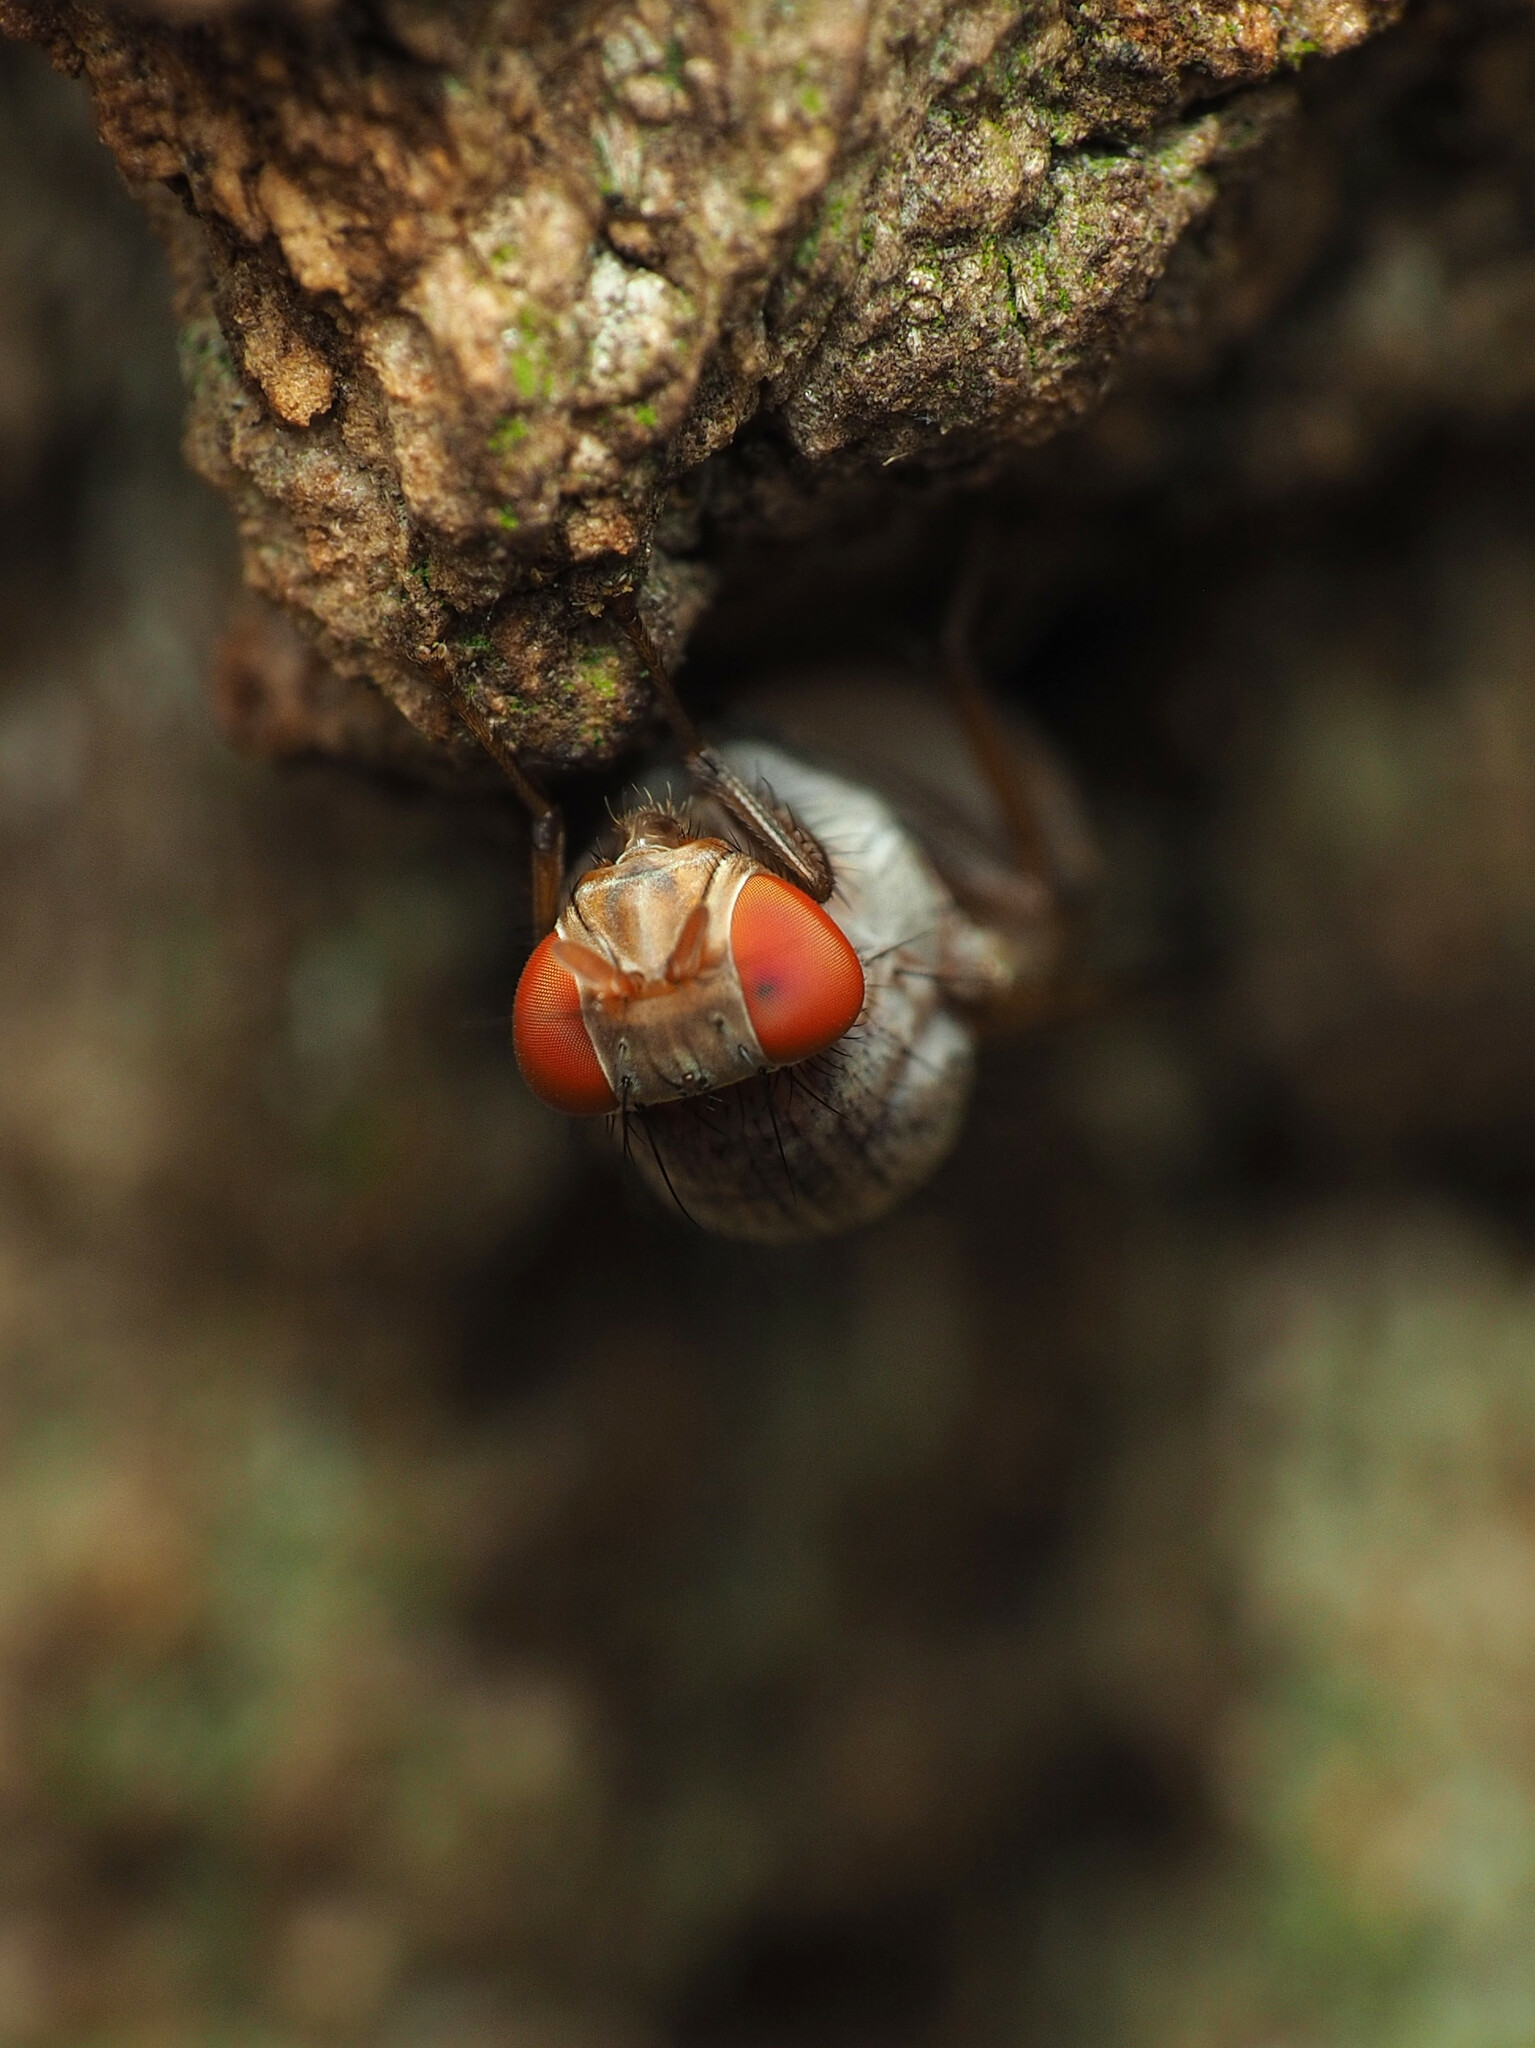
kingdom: Animalia
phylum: Arthropoda
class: Insecta
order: Diptera
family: Lauxaniidae
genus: Minettia
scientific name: Minettia magna
